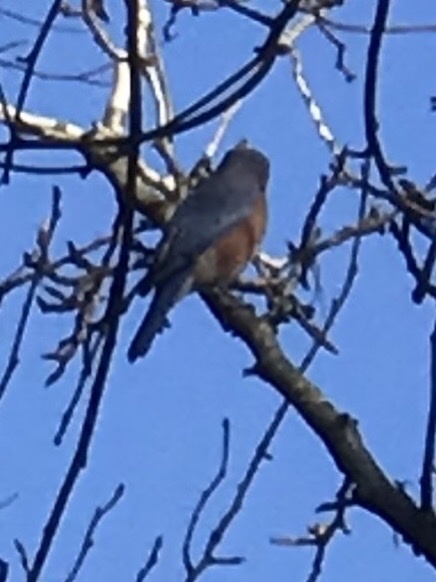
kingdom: Animalia
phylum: Chordata
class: Aves
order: Passeriformes
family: Turdidae
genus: Sialia
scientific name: Sialia sialis
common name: Eastern bluebird
